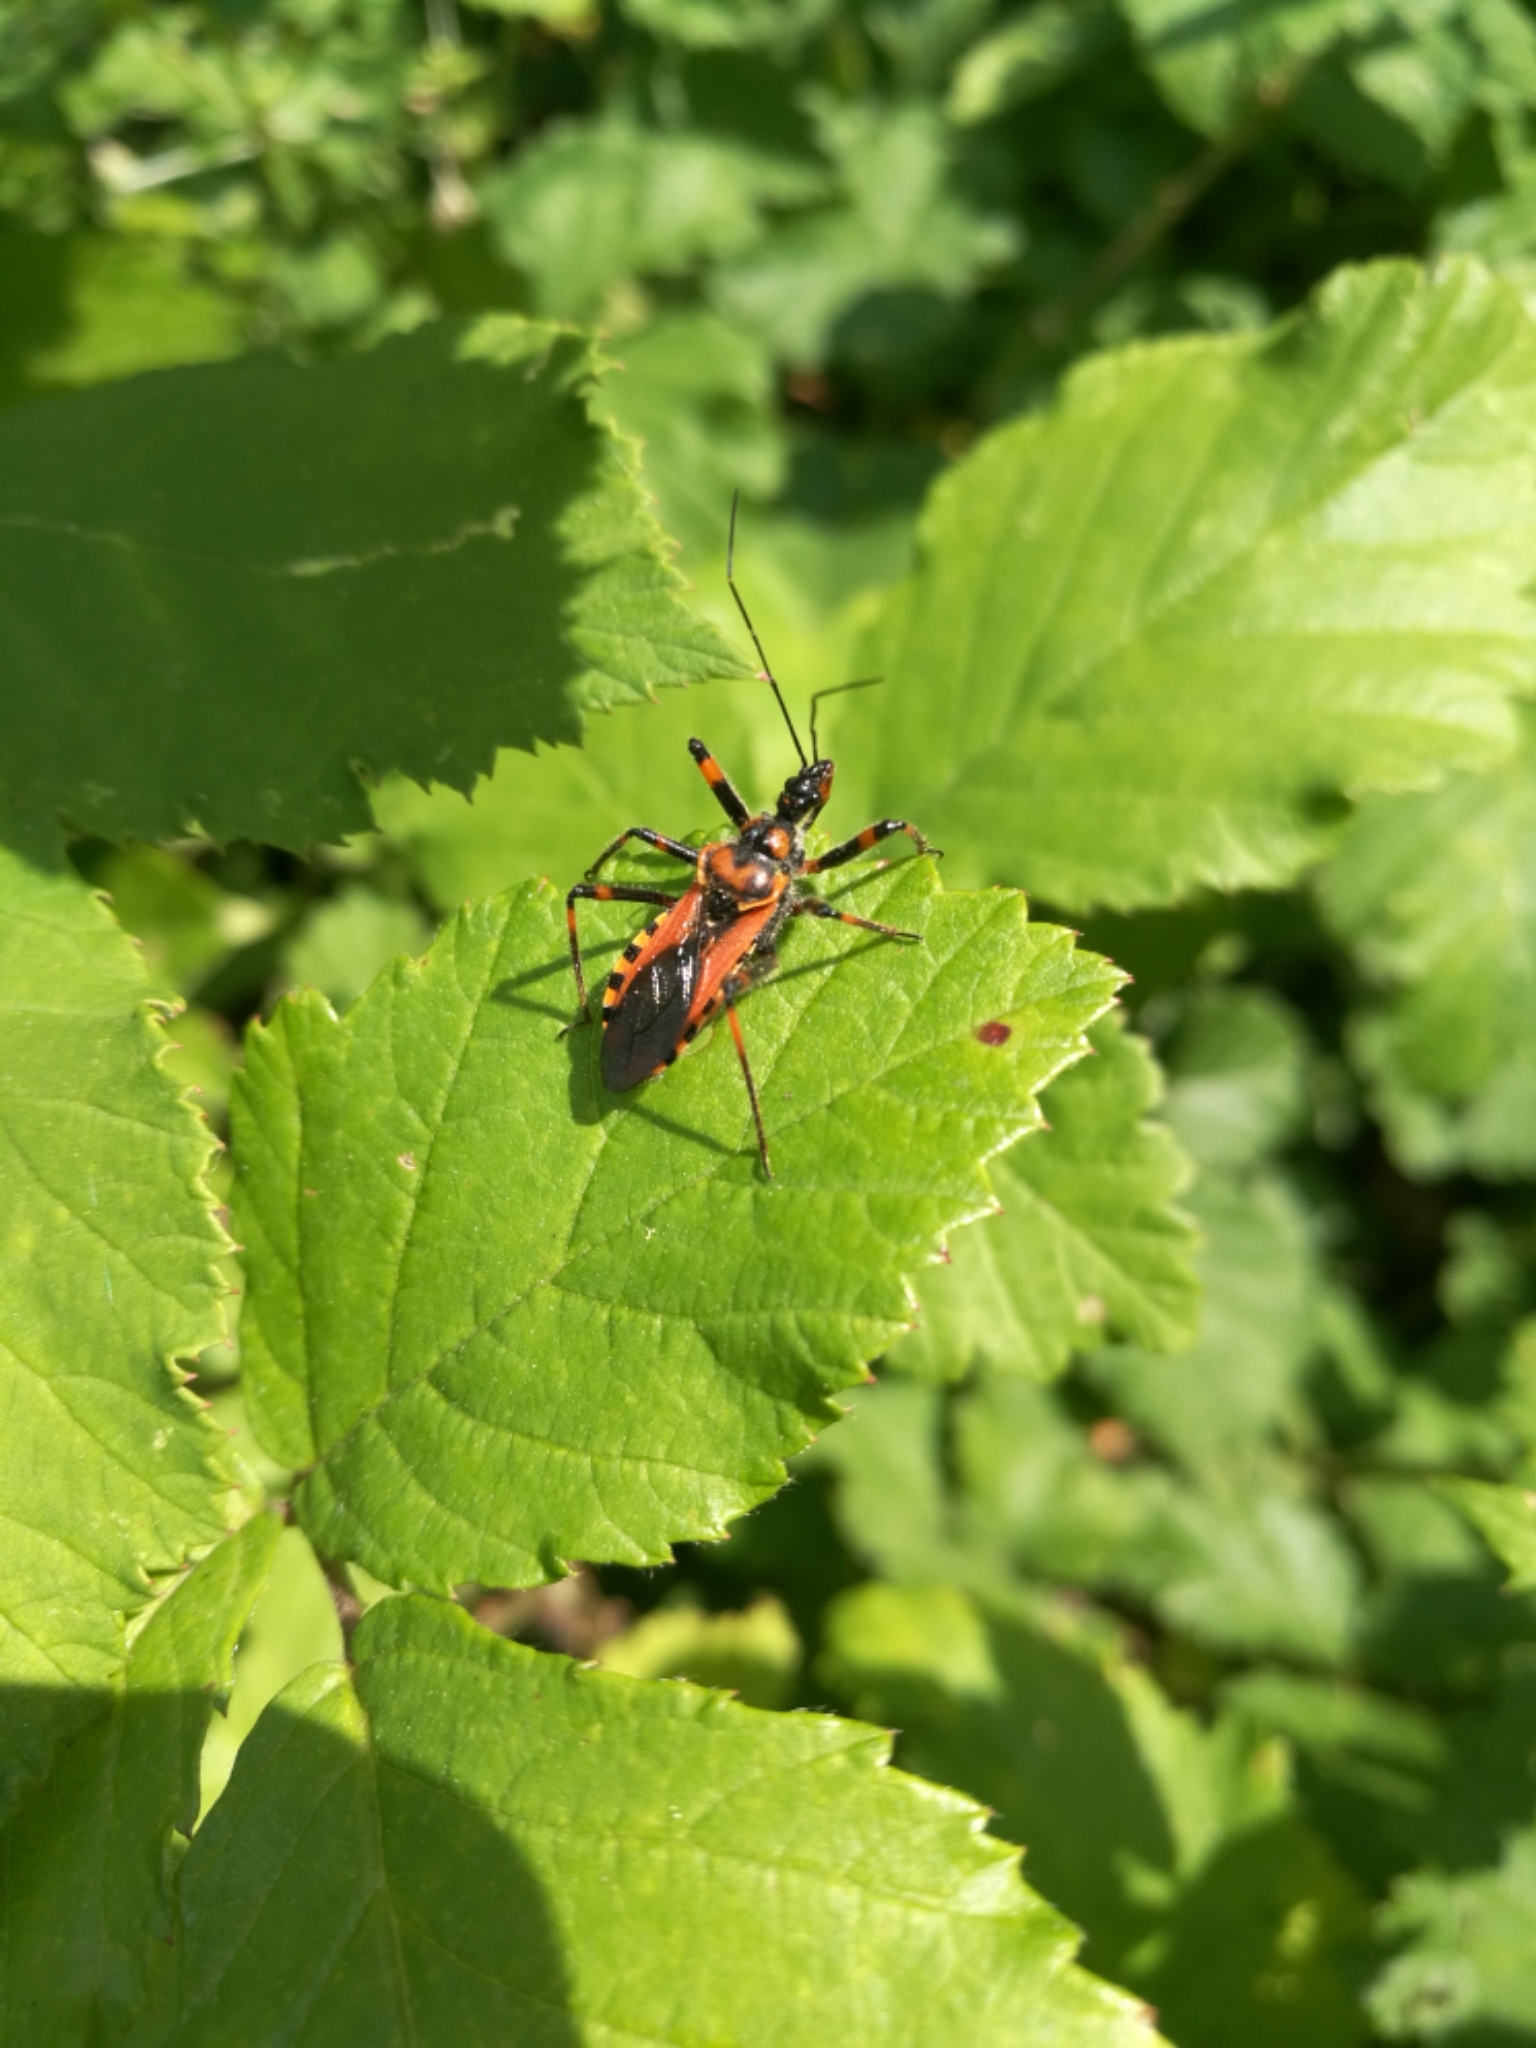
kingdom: Animalia
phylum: Arthropoda
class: Insecta
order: Hemiptera
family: Reduviidae
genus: Rhynocoris
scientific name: Rhynocoris rubricus
